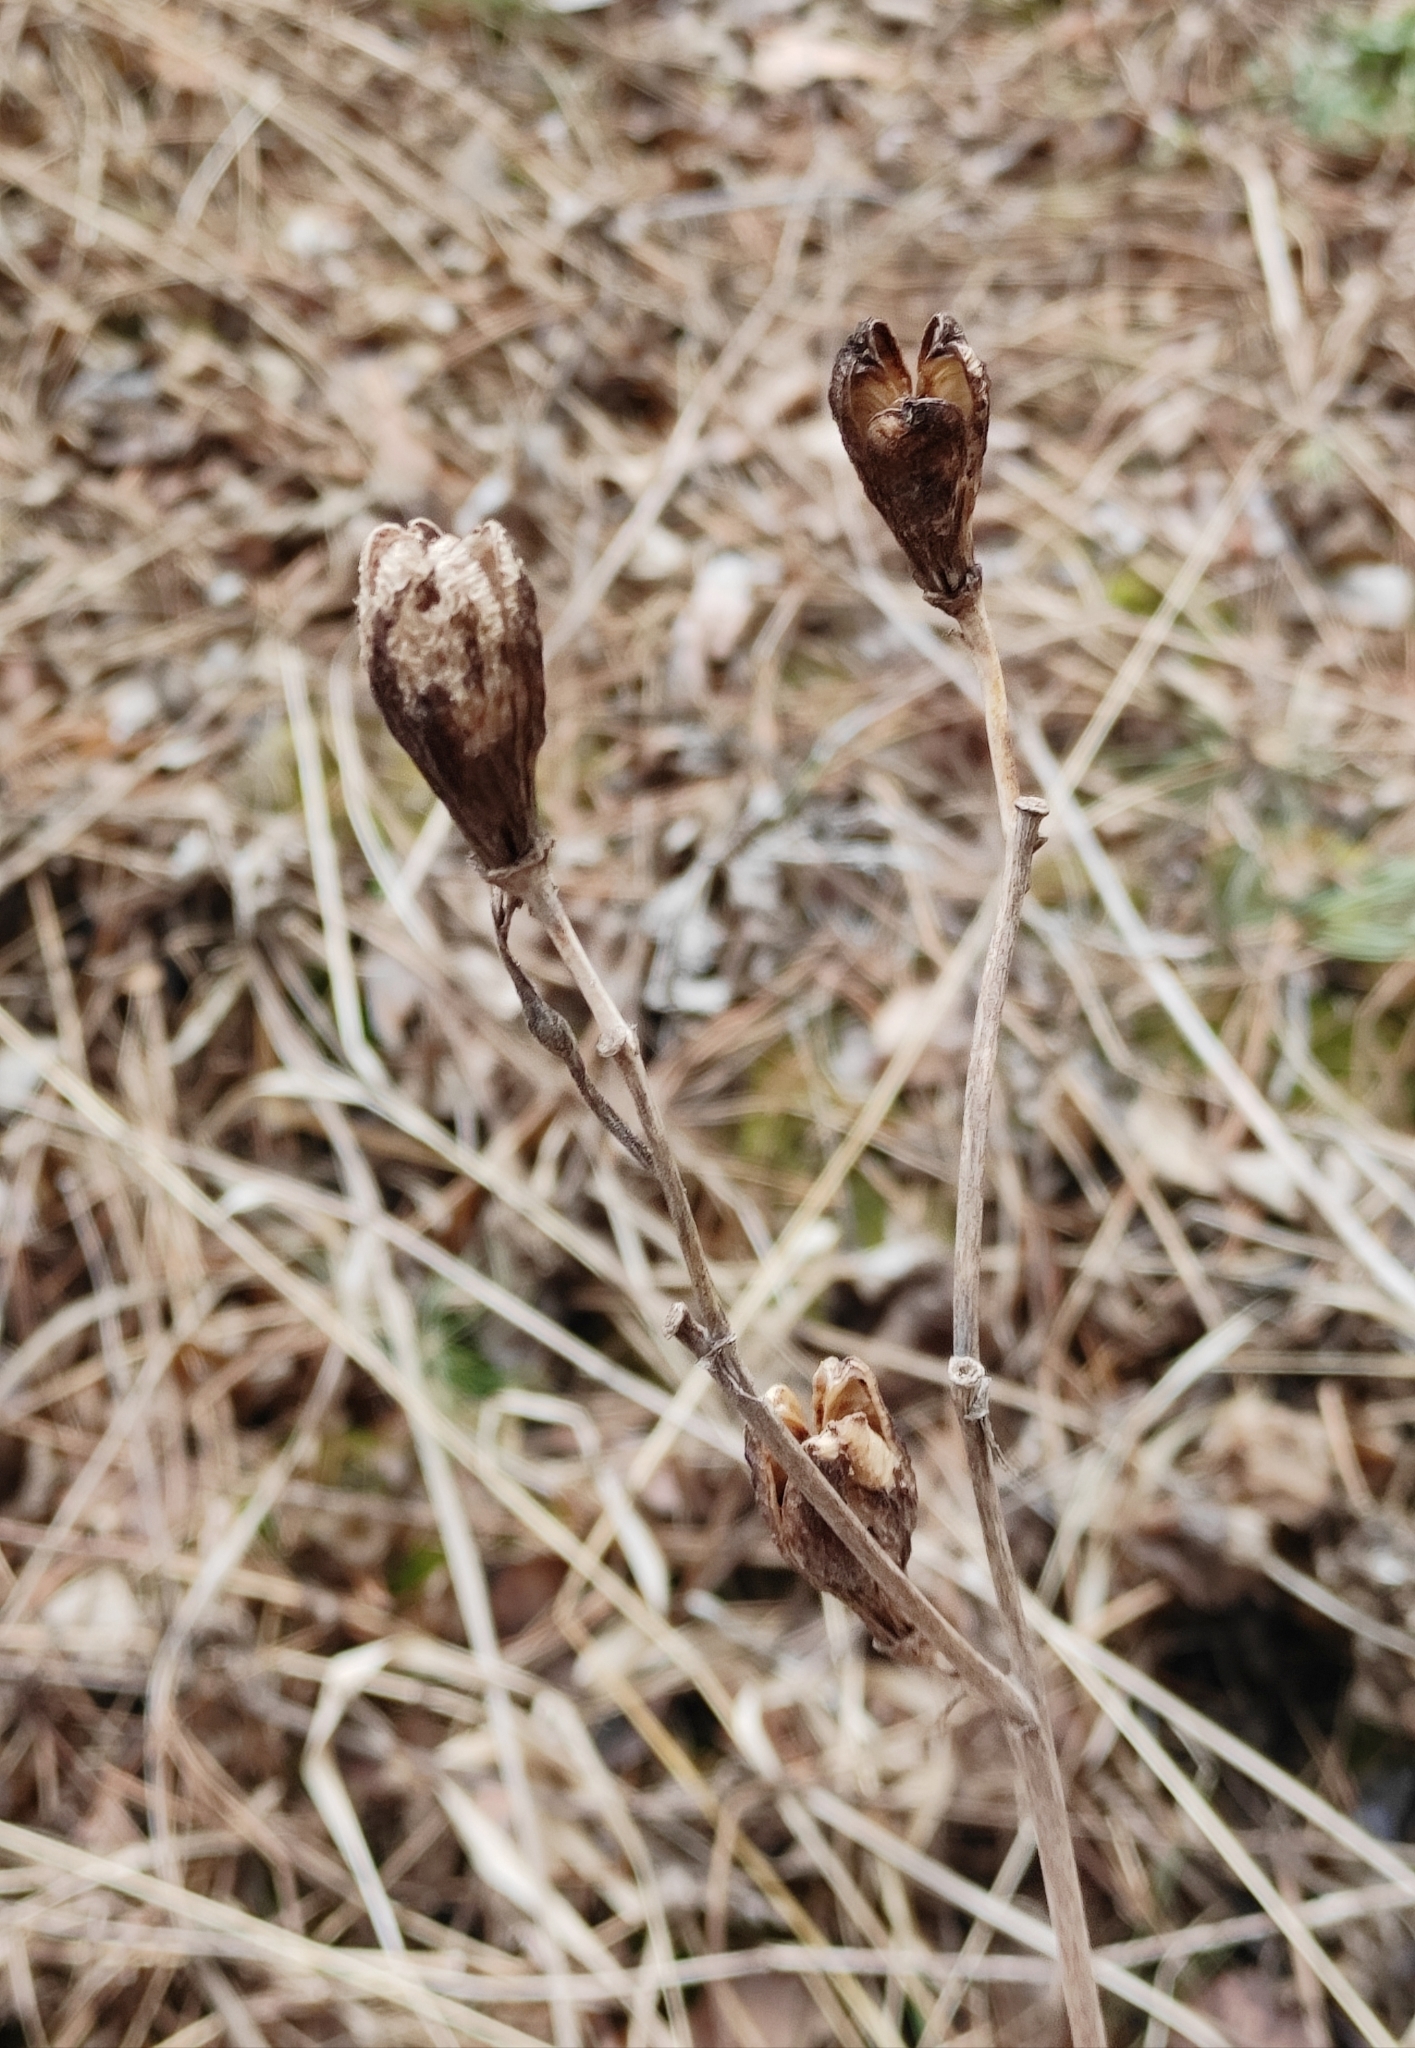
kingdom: Plantae
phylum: Tracheophyta
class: Liliopsida
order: Asparagales
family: Asphodelaceae
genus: Hemerocallis
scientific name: Hemerocallis minor
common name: Small daylily
